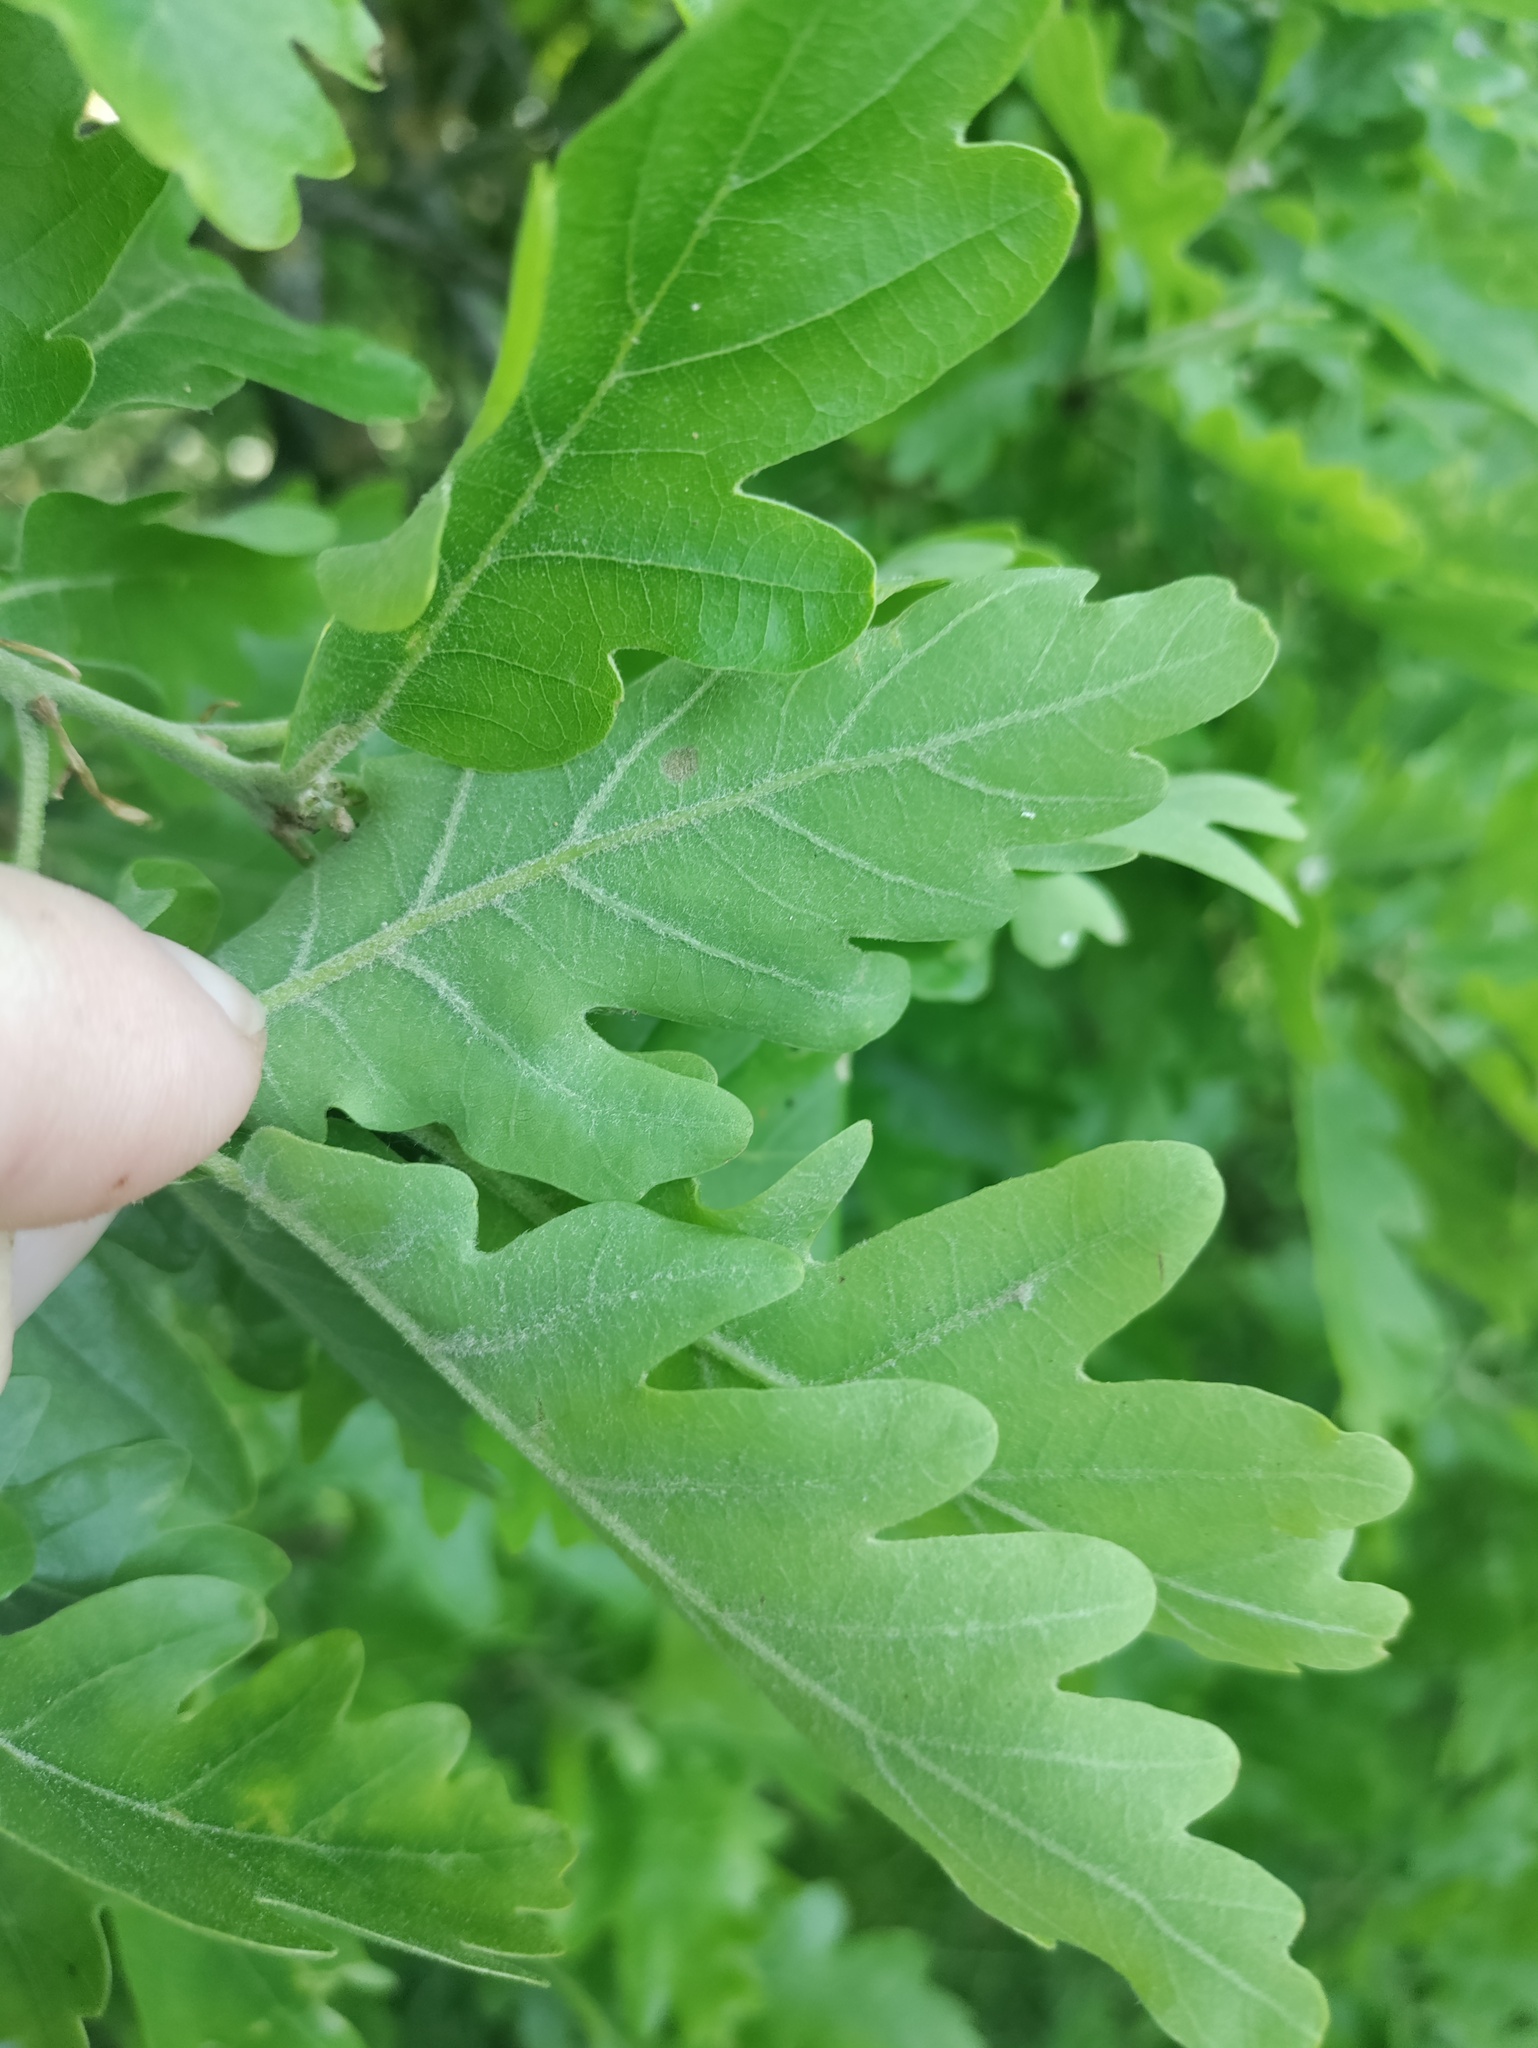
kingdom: Plantae
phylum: Tracheophyta
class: Magnoliopsida
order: Fagales
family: Fagaceae
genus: Quercus
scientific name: Quercus pubescens
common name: Downy oak
